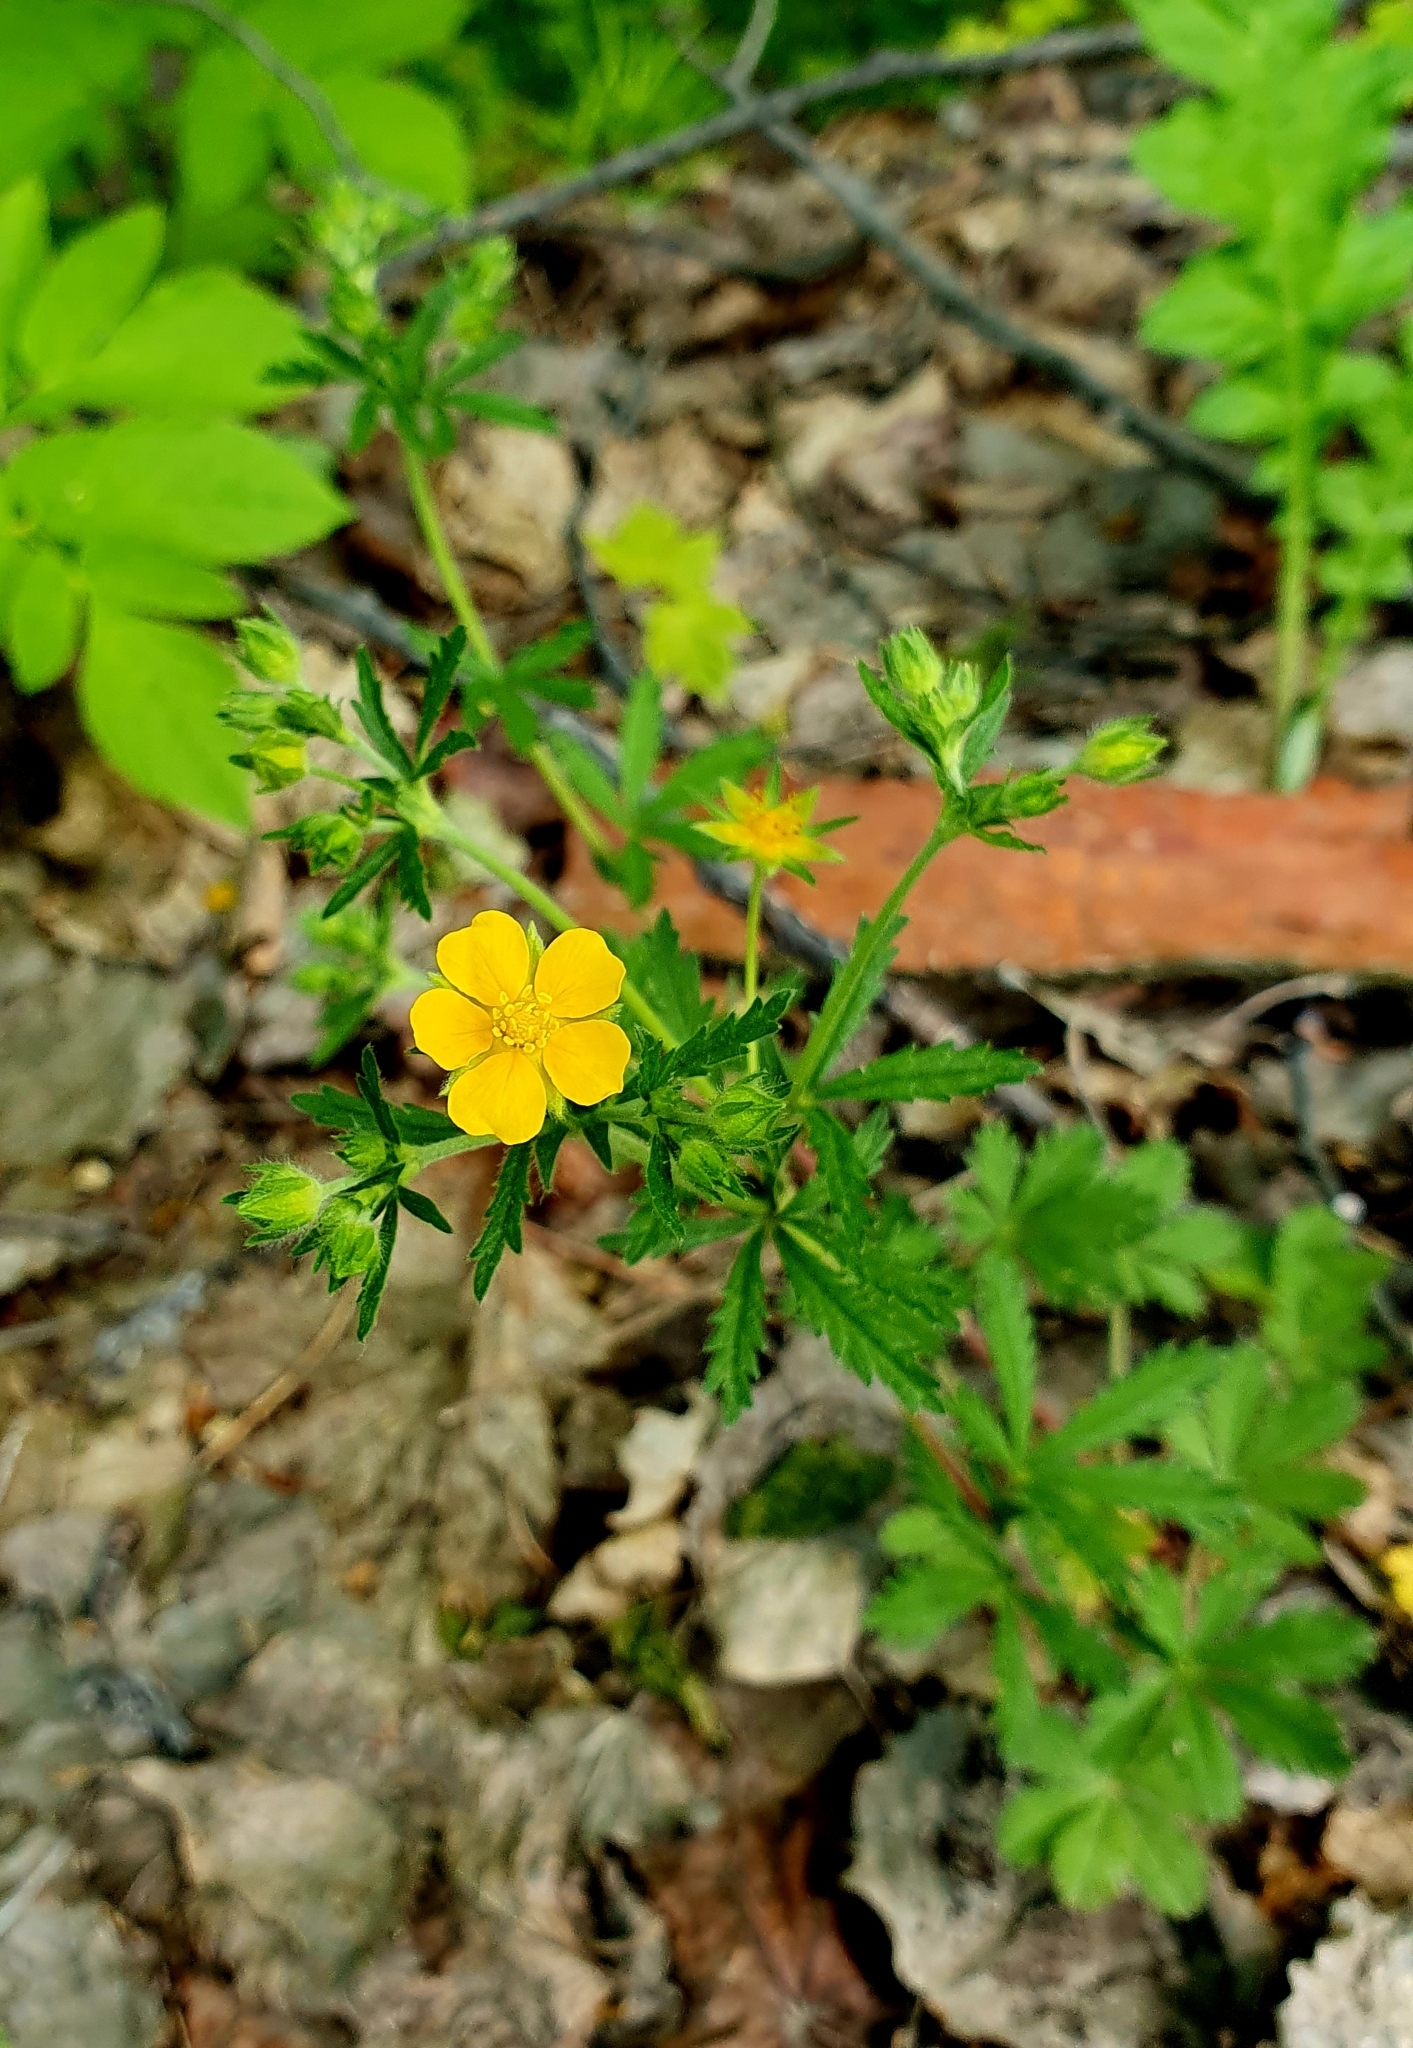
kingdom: Plantae
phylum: Tracheophyta
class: Magnoliopsida
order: Rosales
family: Rosaceae
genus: Potentilla
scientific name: Potentilla thuringiaca
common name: European cinquefoil
